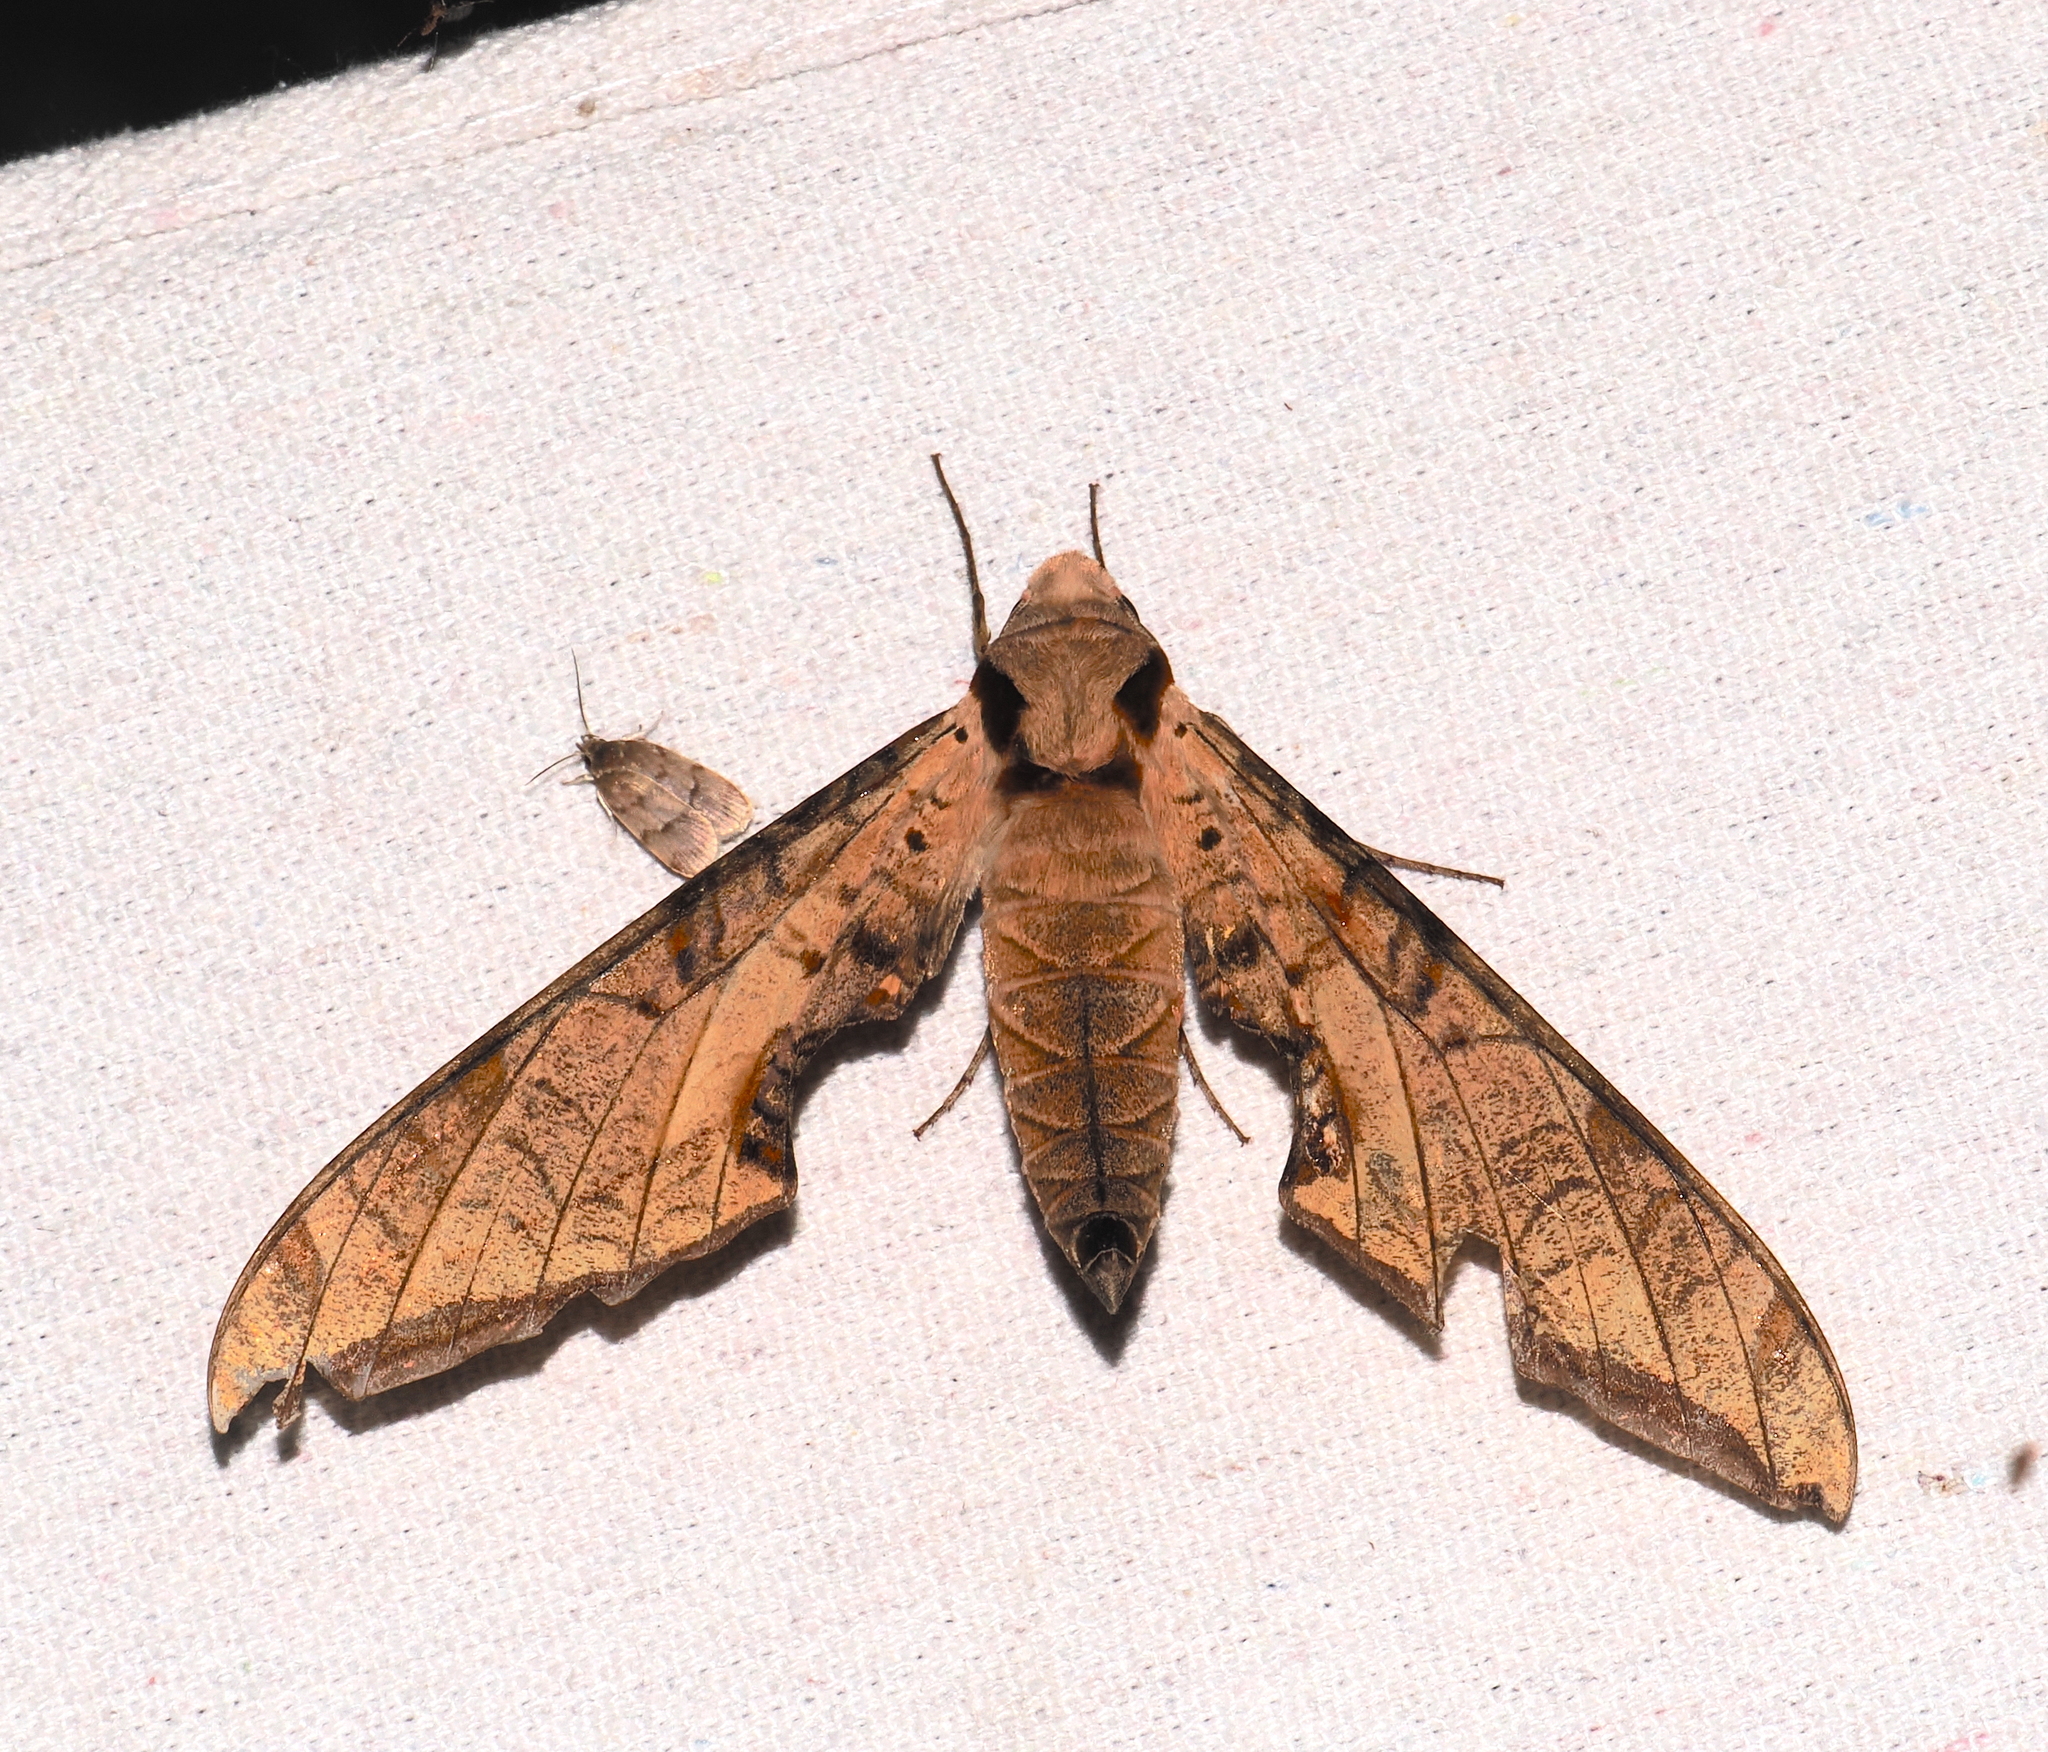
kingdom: Animalia
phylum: Arthropoda
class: Insecta
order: Lepidoptera
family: Sphingidae
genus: Protambulyx
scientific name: Protambulyx strigilis
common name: Streaked sphinx
